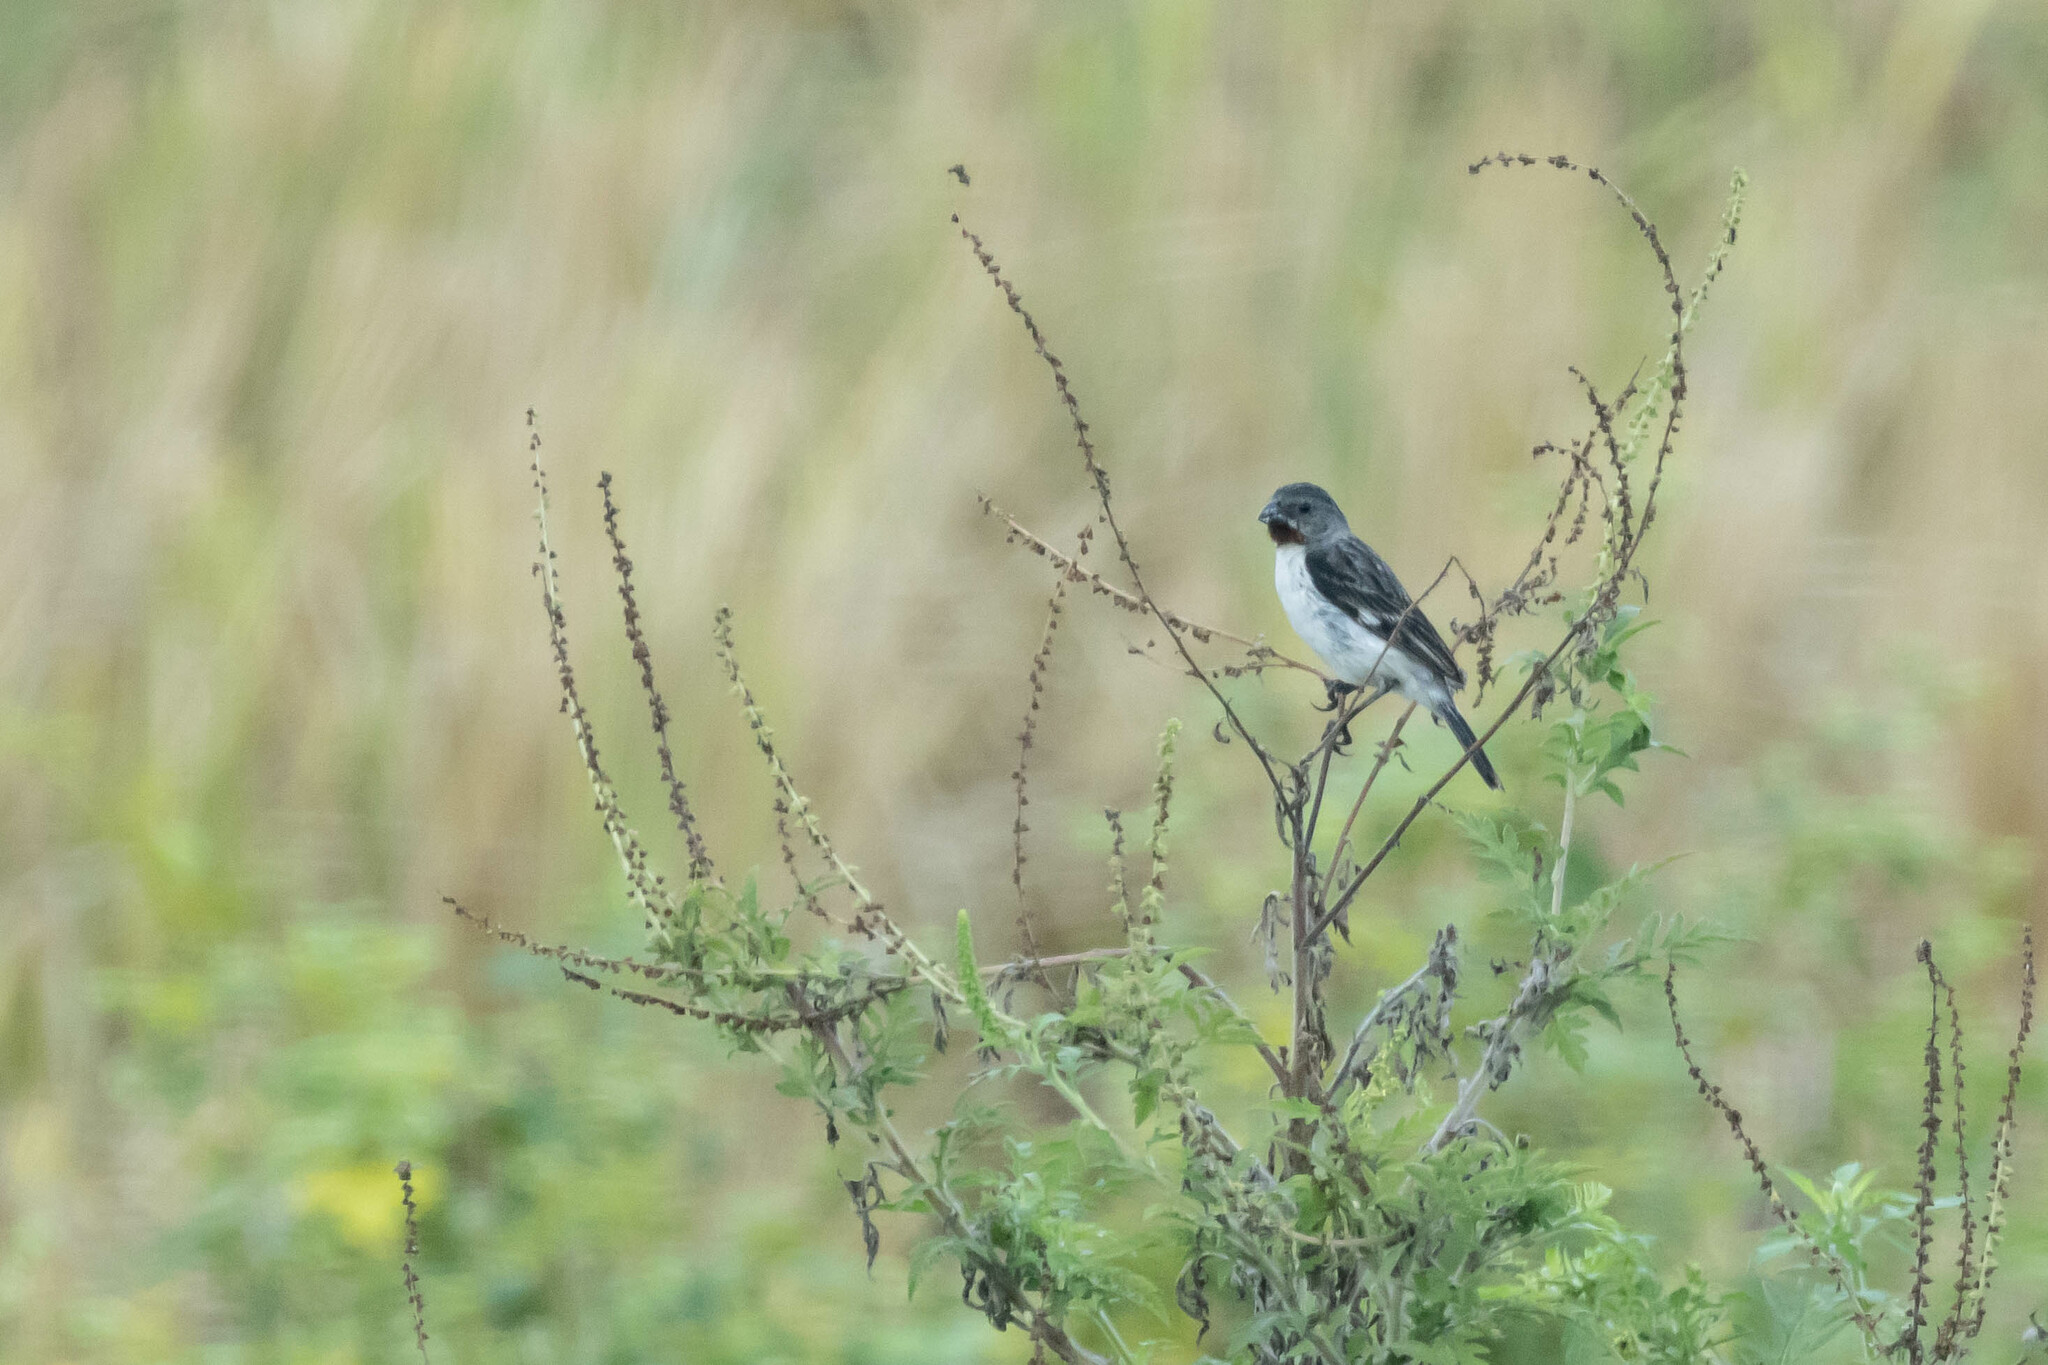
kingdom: Animalia
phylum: Chordata
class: Aves
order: Passeriformes
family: Thraupidae
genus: Sporophila
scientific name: Sporophila telasco
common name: Chestnut-throated seedeater
